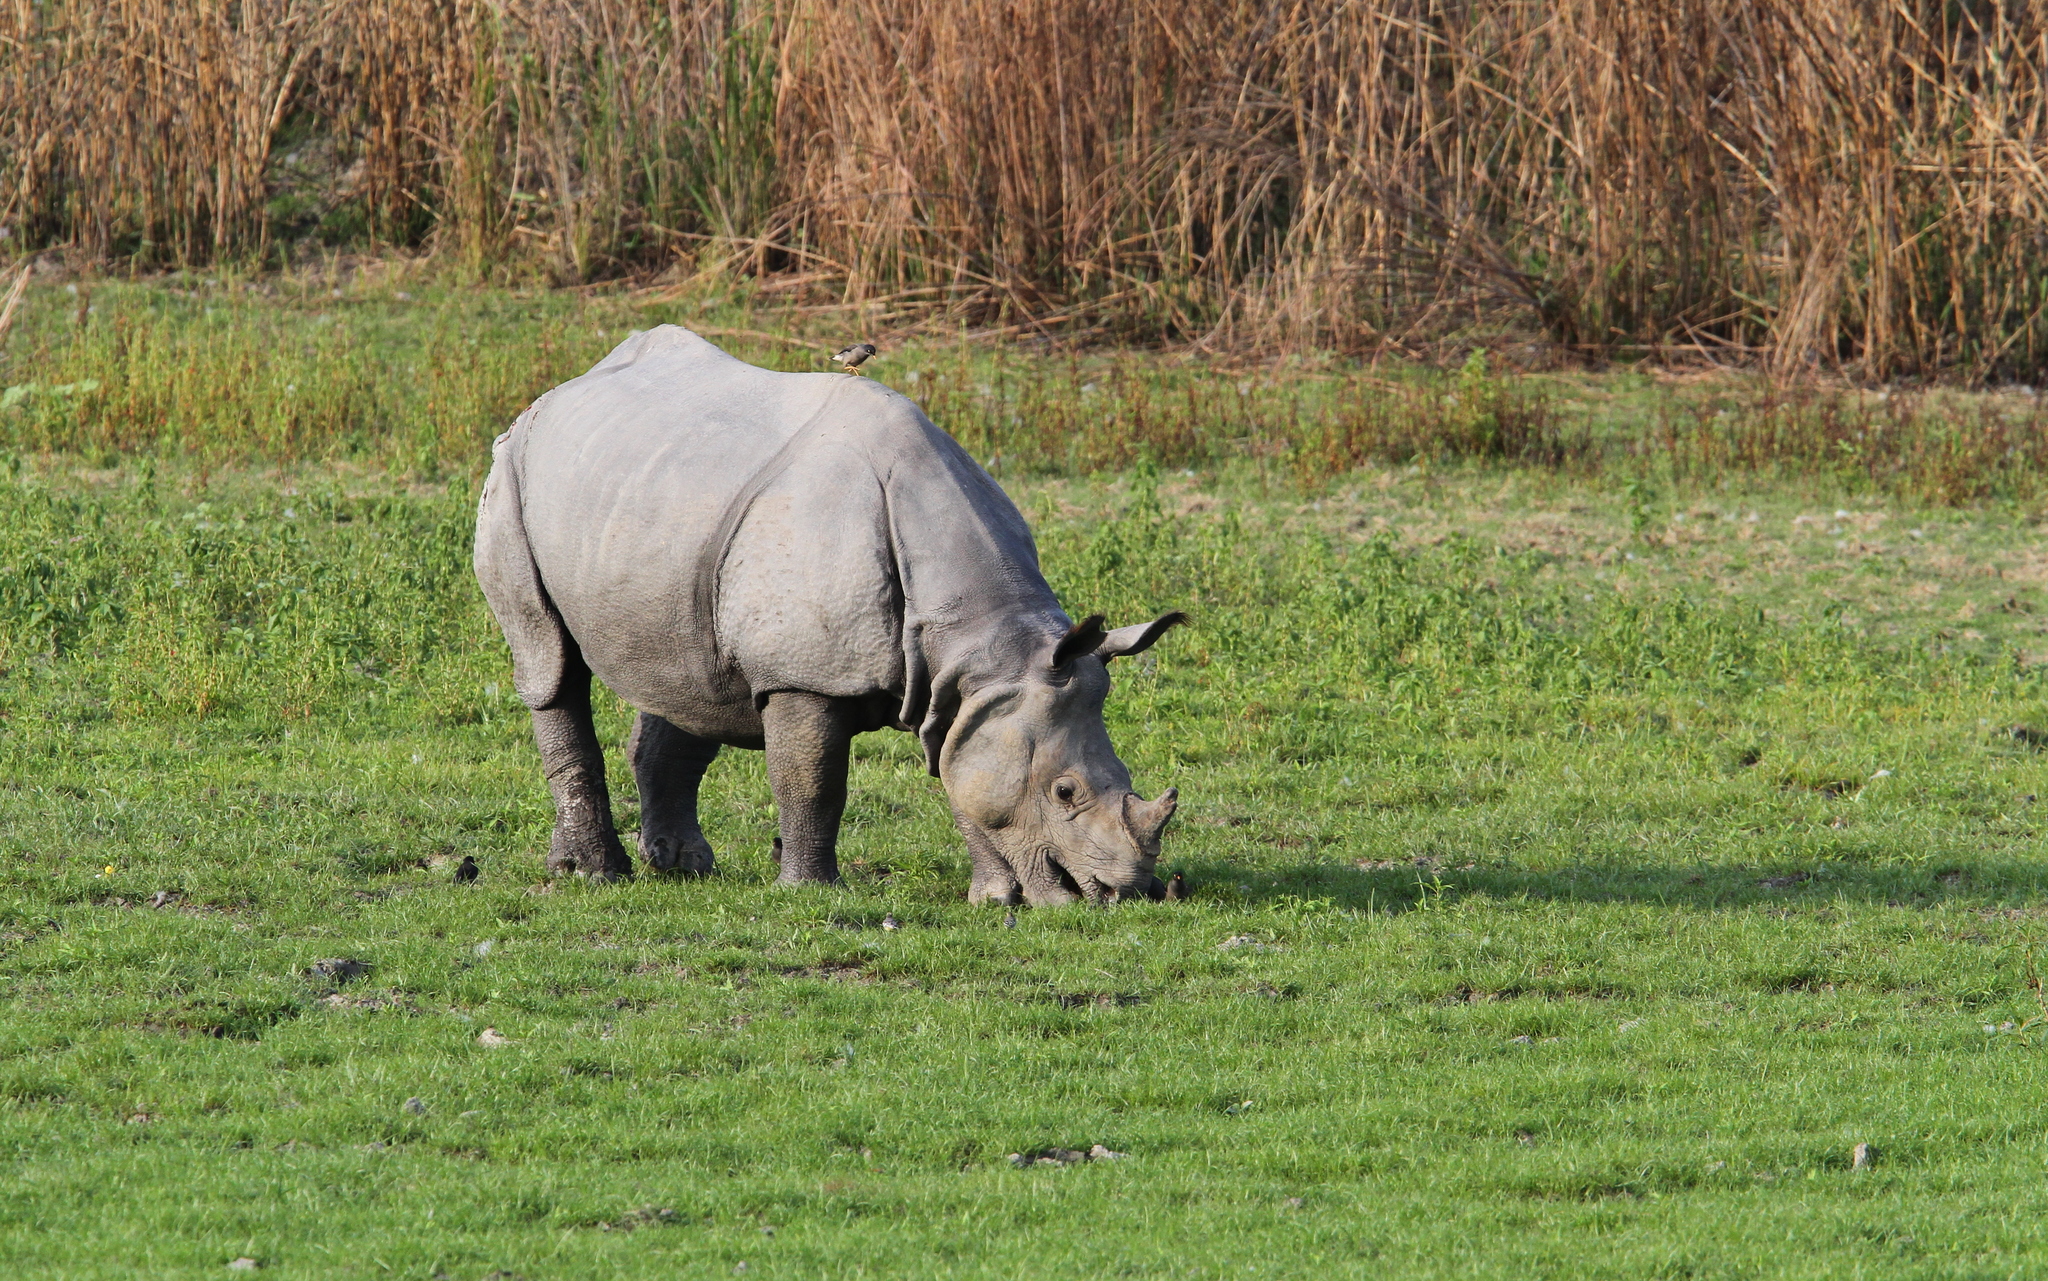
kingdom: Animalia
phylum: Chordata
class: Mammalia
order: Perissodactyla
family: Rhinocerotidae
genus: Rhinoceros
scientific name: Rhinoceros unicornis
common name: Indian rhinoceros
